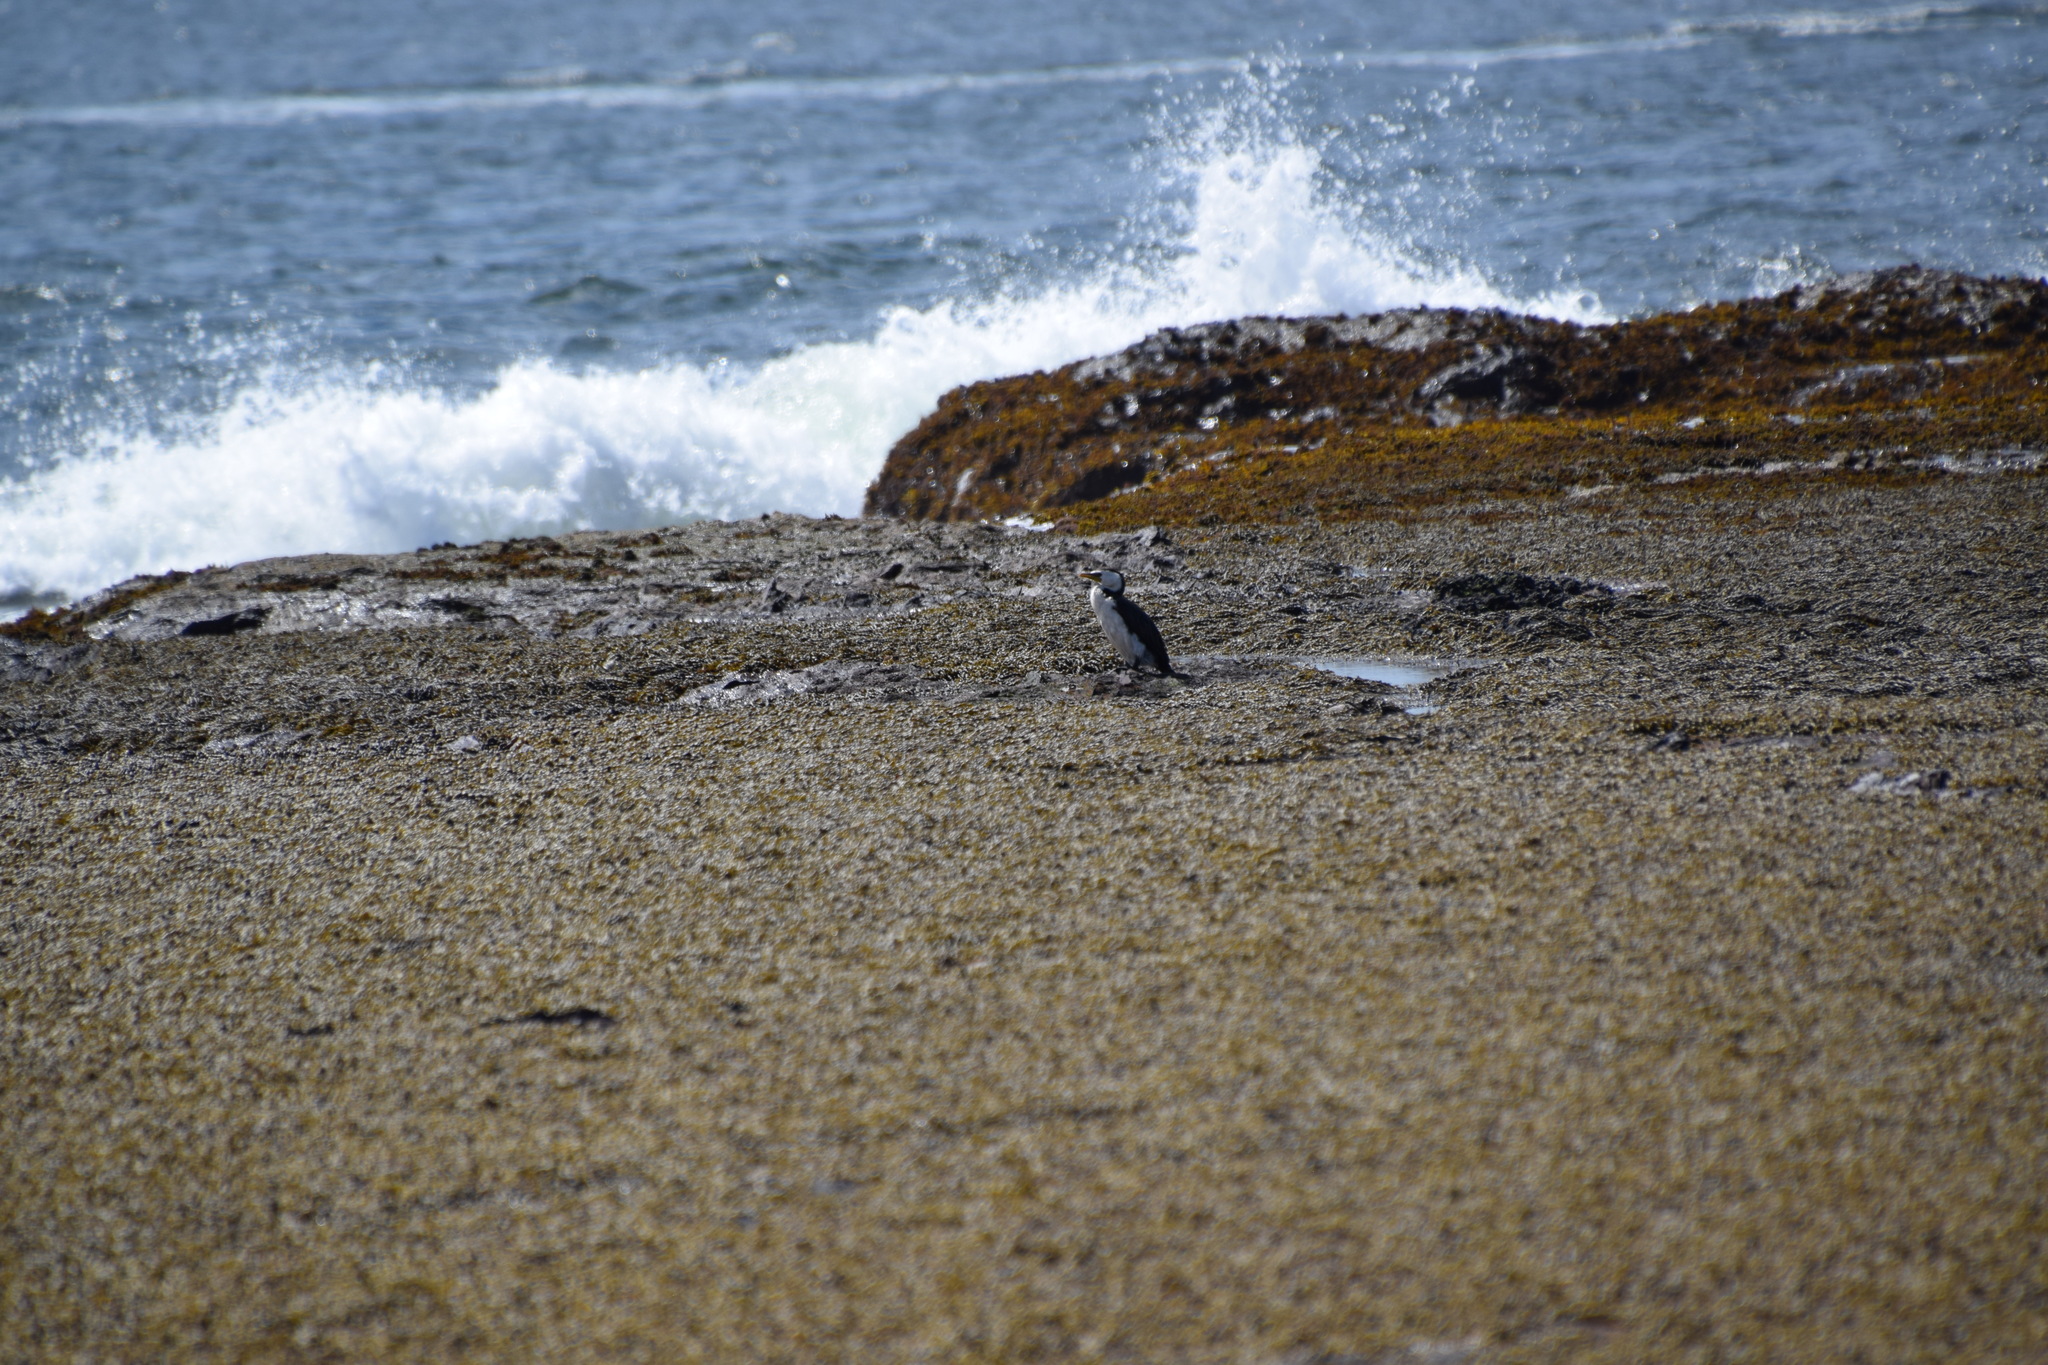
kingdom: Animalia
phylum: Chordata
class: Aves
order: Suliformes
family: Phalacrocoracidae
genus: Microcarbo
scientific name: Microcarbo melanoleucos
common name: Little pied cormorant
